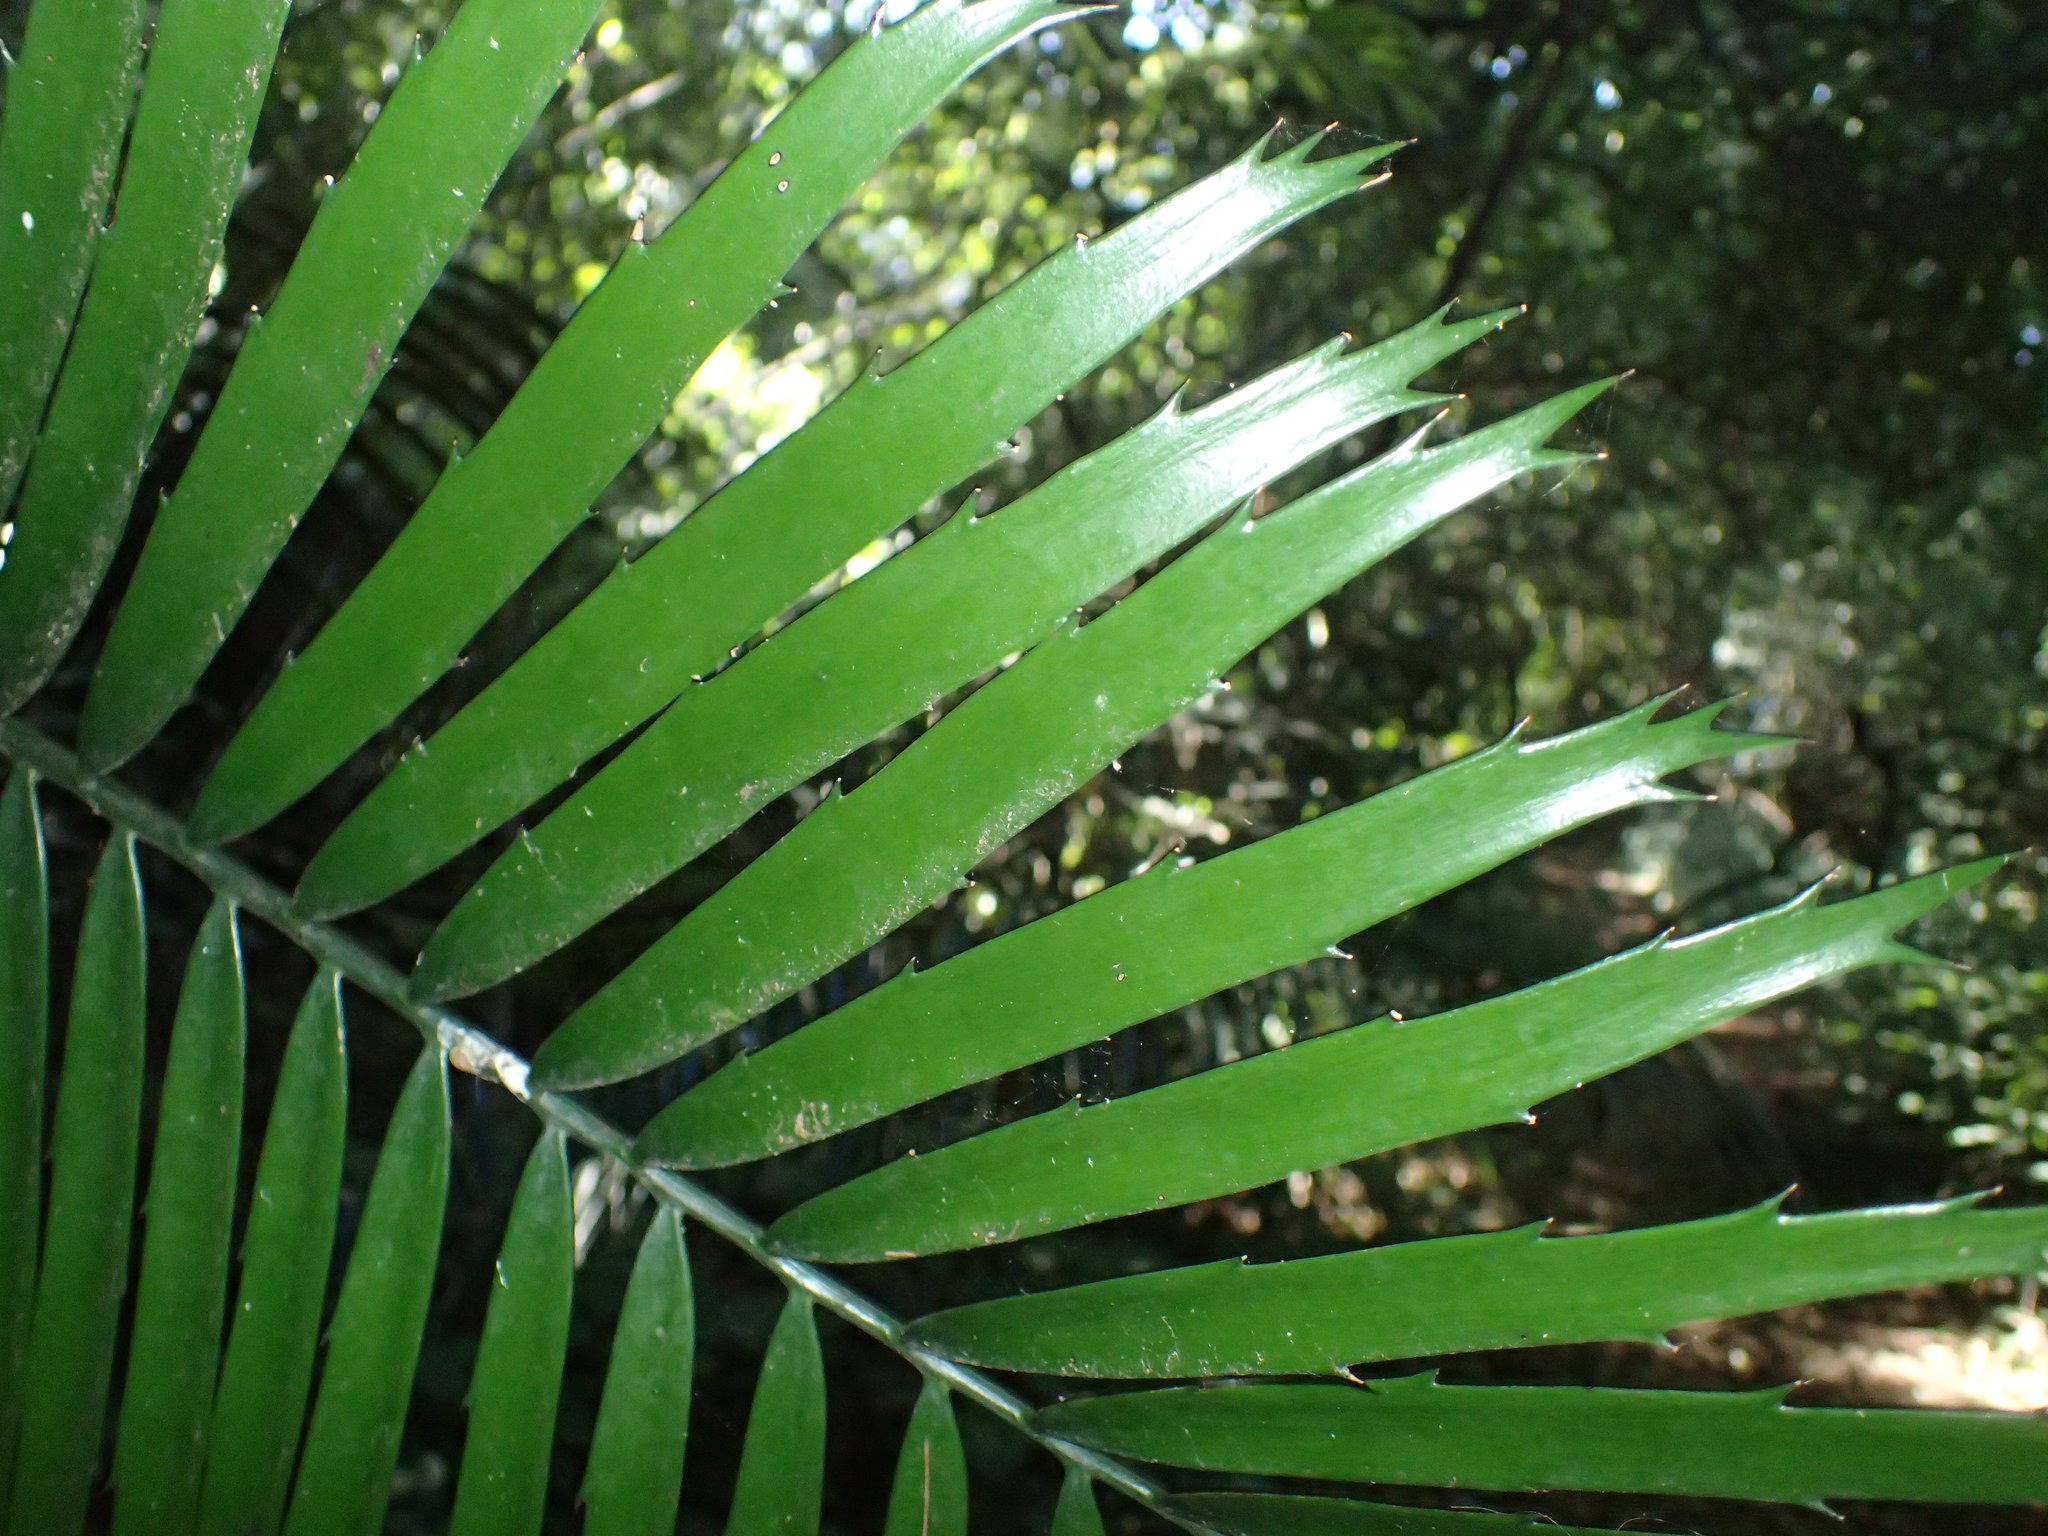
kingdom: Plantae
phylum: Tracheophyta
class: Cycadopsida
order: Cycadales
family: Zamiaceae
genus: Encephalartos
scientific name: Encephalartos villosus
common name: Poor man's cycad
